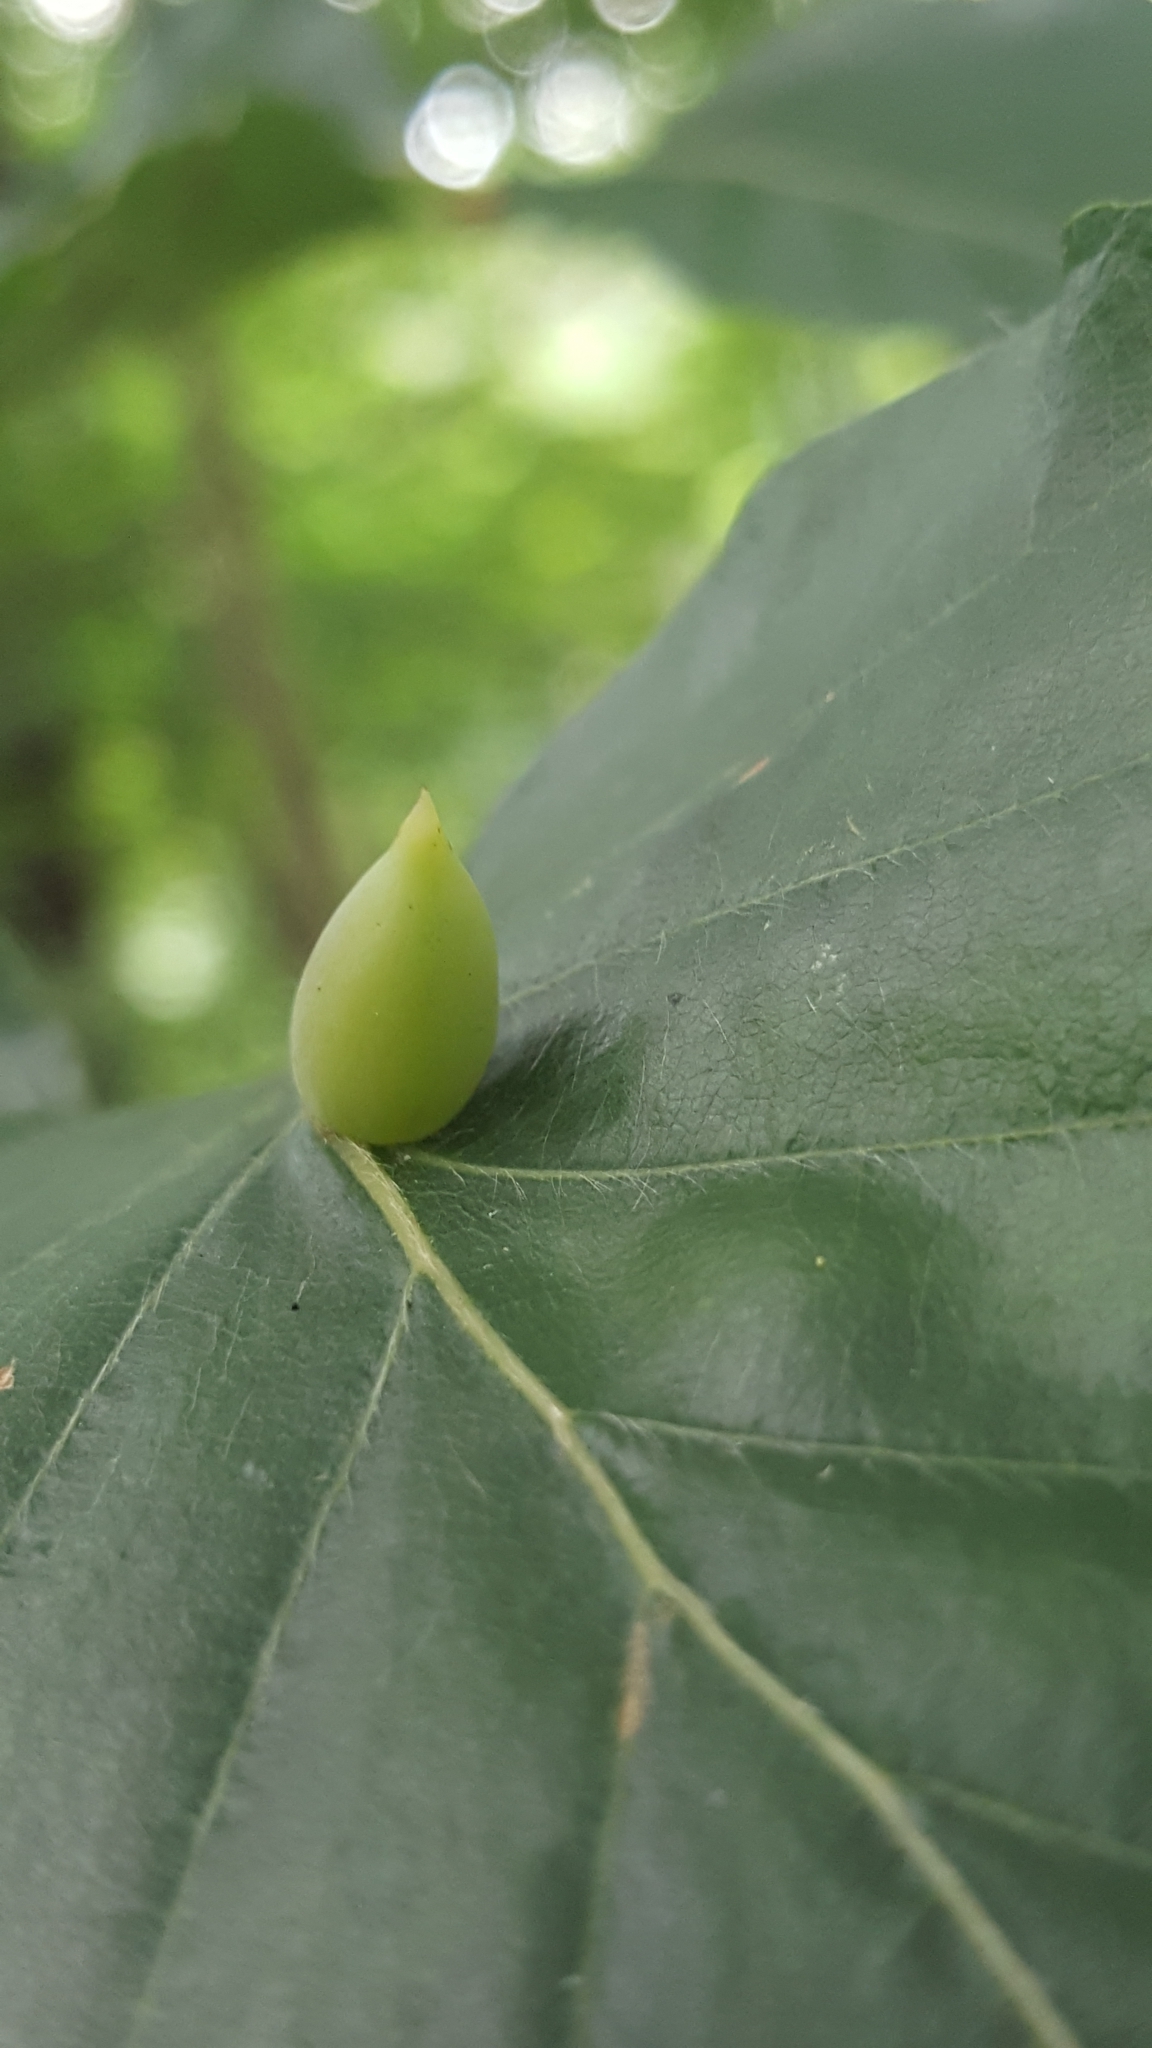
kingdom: Animalia
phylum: Arthropoda
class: Insecta
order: Diptera
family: Cecidomyiidae
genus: Mikiola
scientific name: Mikiola fagi
